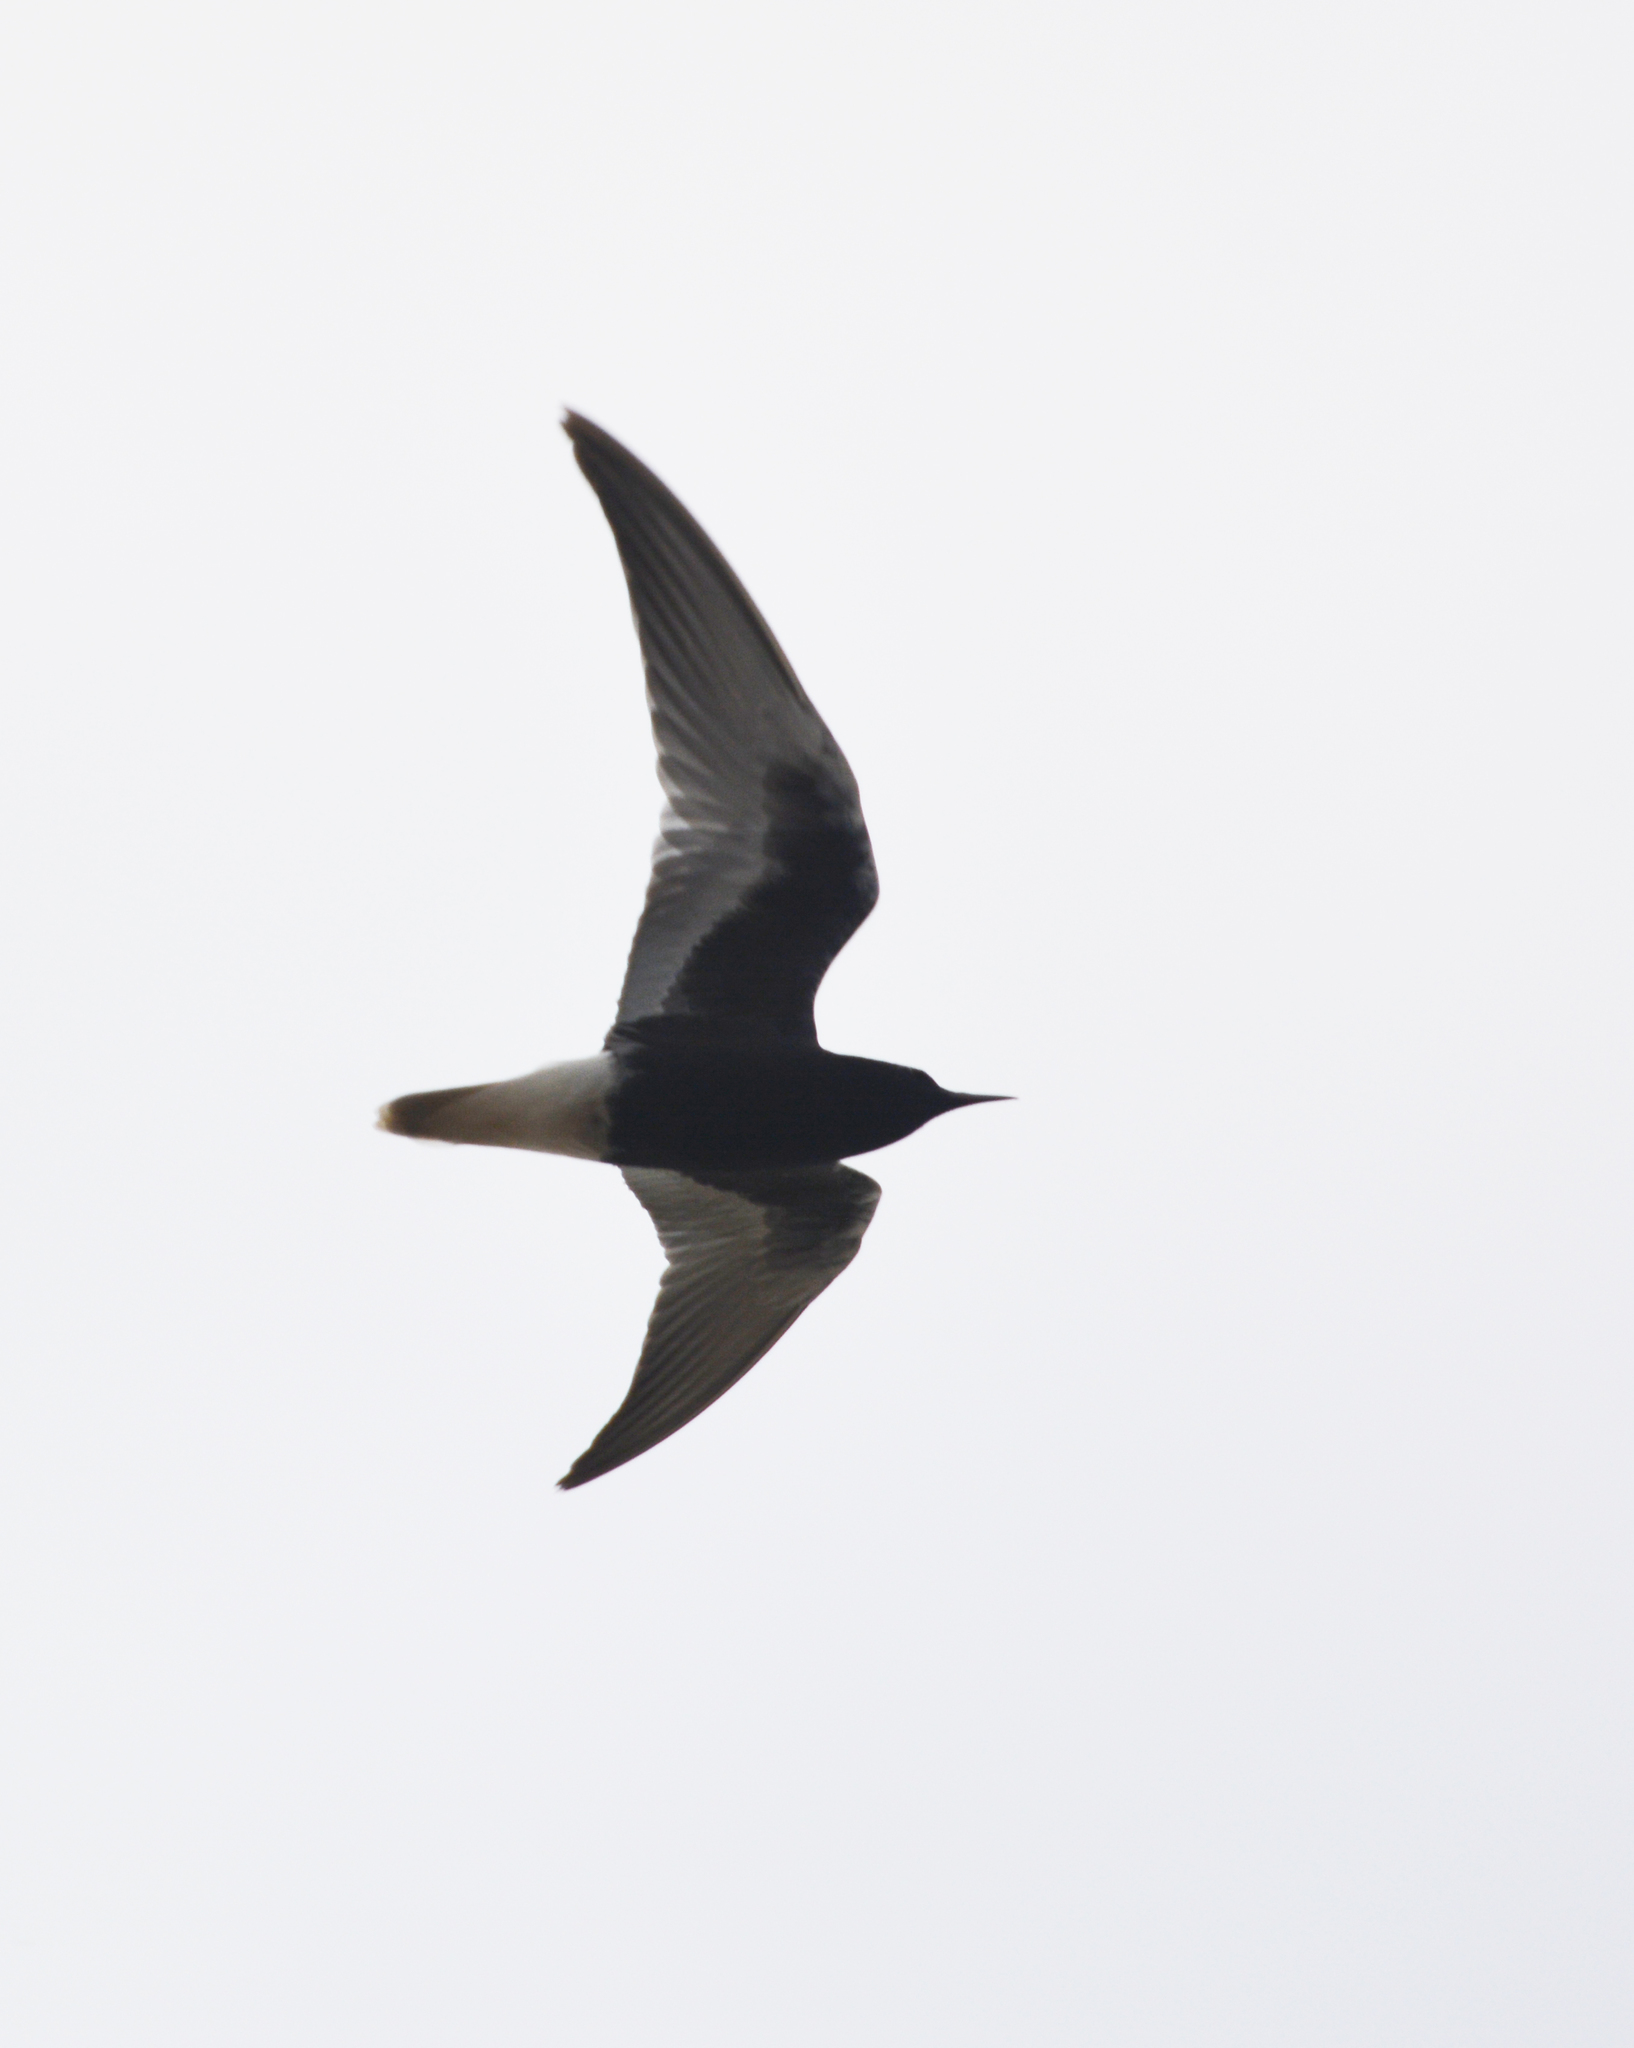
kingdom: Animalia
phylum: Chordata
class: Aves
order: Charadriiformes
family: Laridae
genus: Chlidonias
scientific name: Chlidonias leucopterus
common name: White-winged tern
